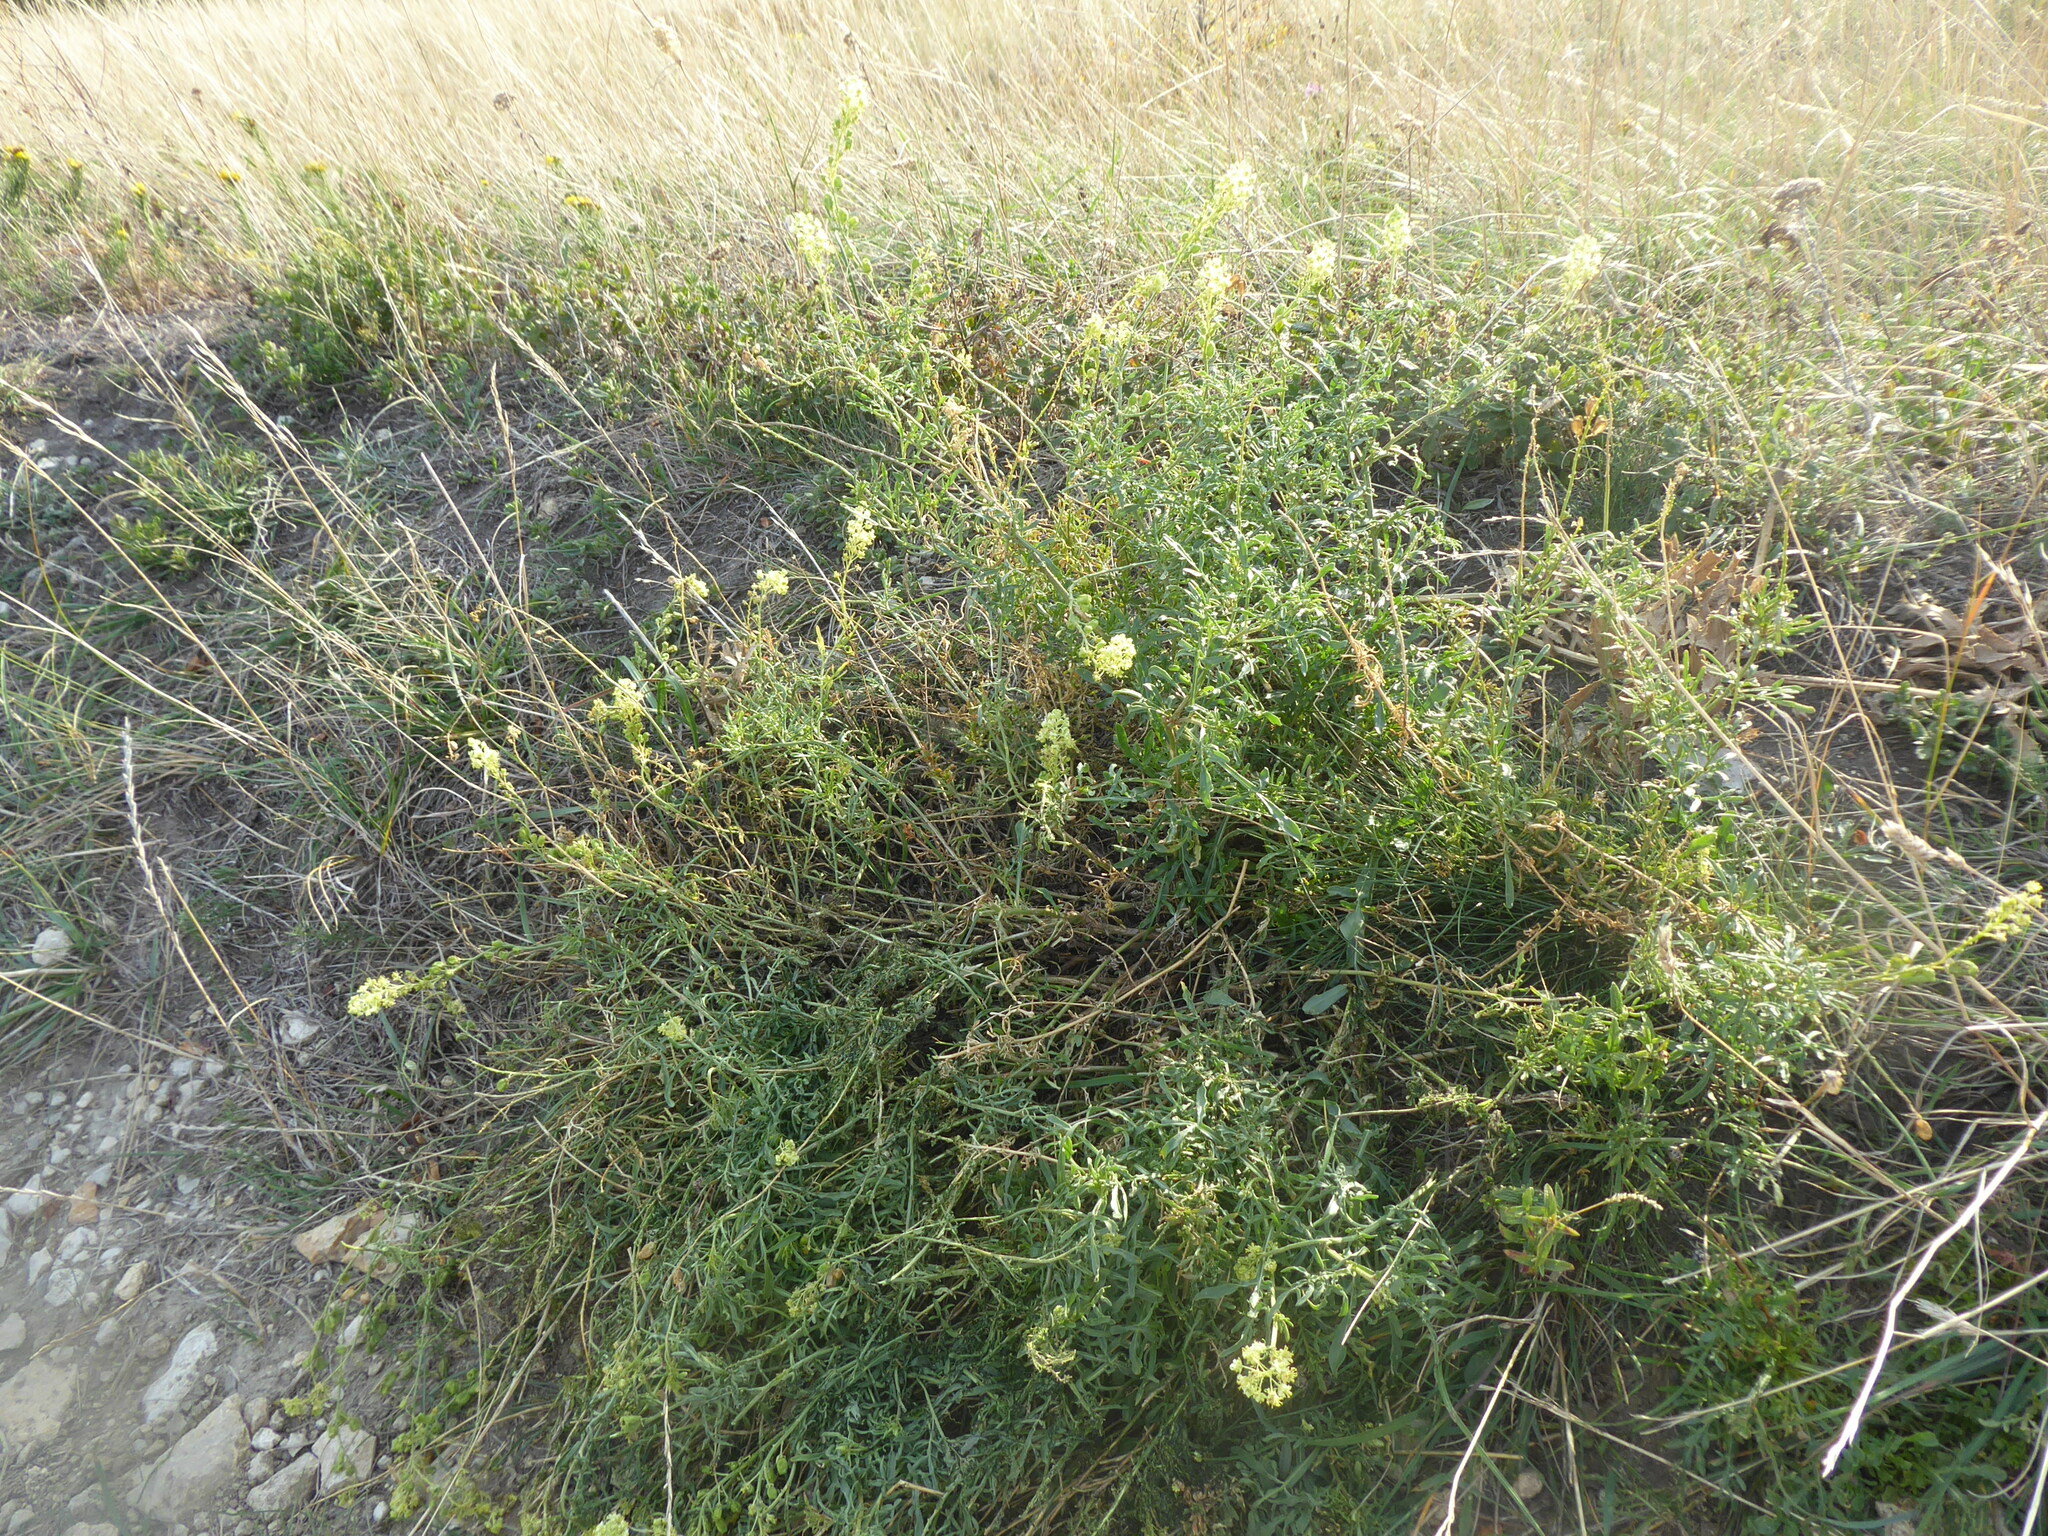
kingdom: Plantae
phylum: Tracheophyta
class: Magnoliopsida
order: Brassicales
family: Resedaceae
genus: Reseda
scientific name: Reseda lutea
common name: Wild mignonette
